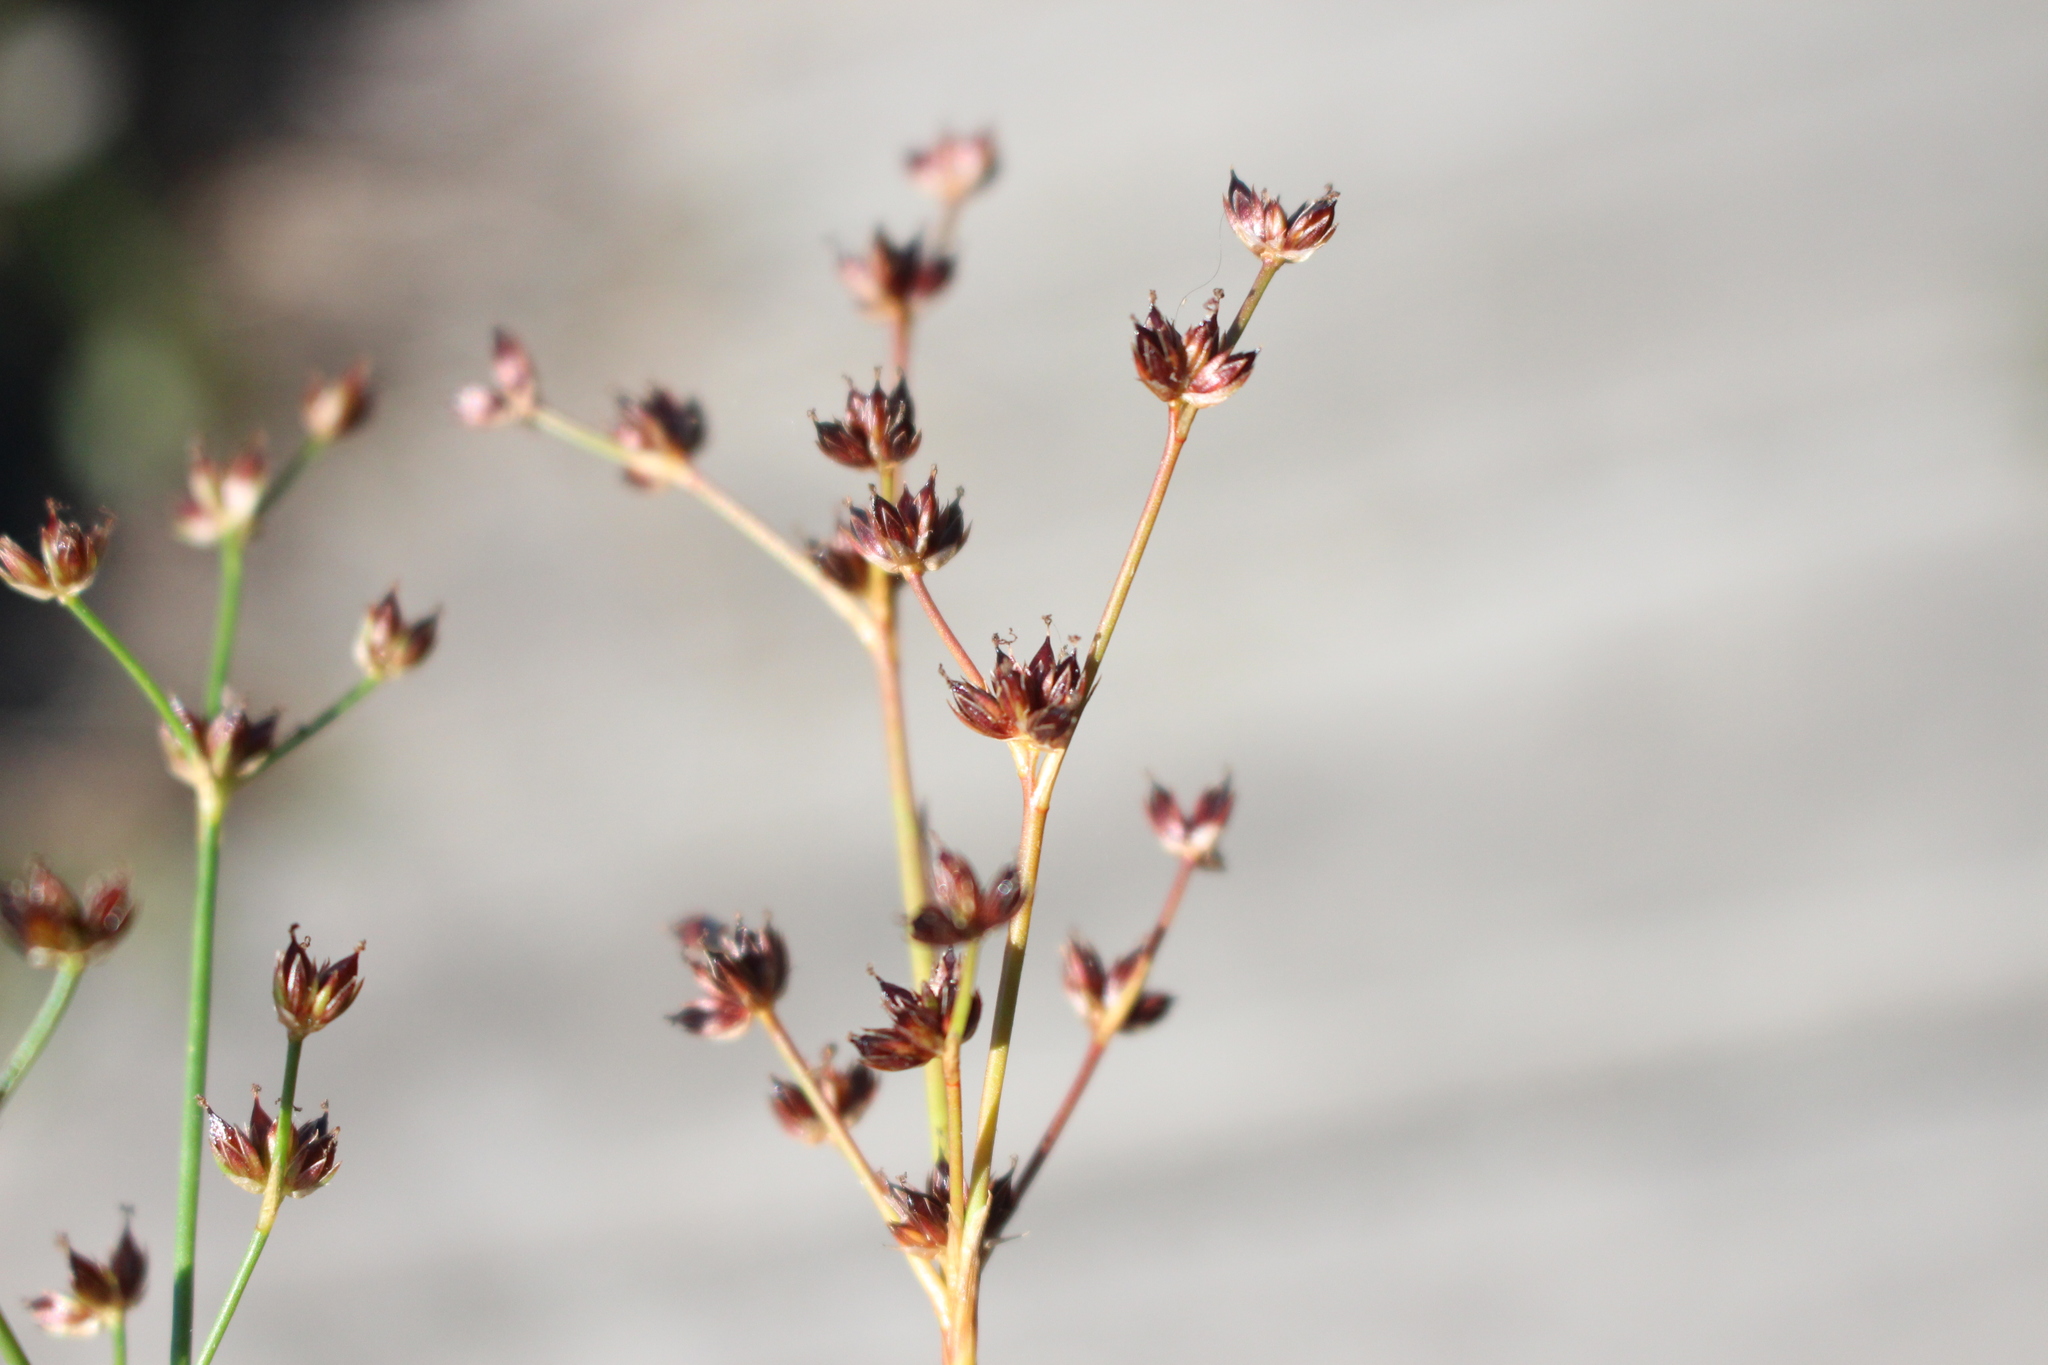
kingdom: Plantae
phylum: Tracheophyta
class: Liliopsida
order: Poales
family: Juncaceae
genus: Juncus
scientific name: Juncus articulatus
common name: Jointed rush
